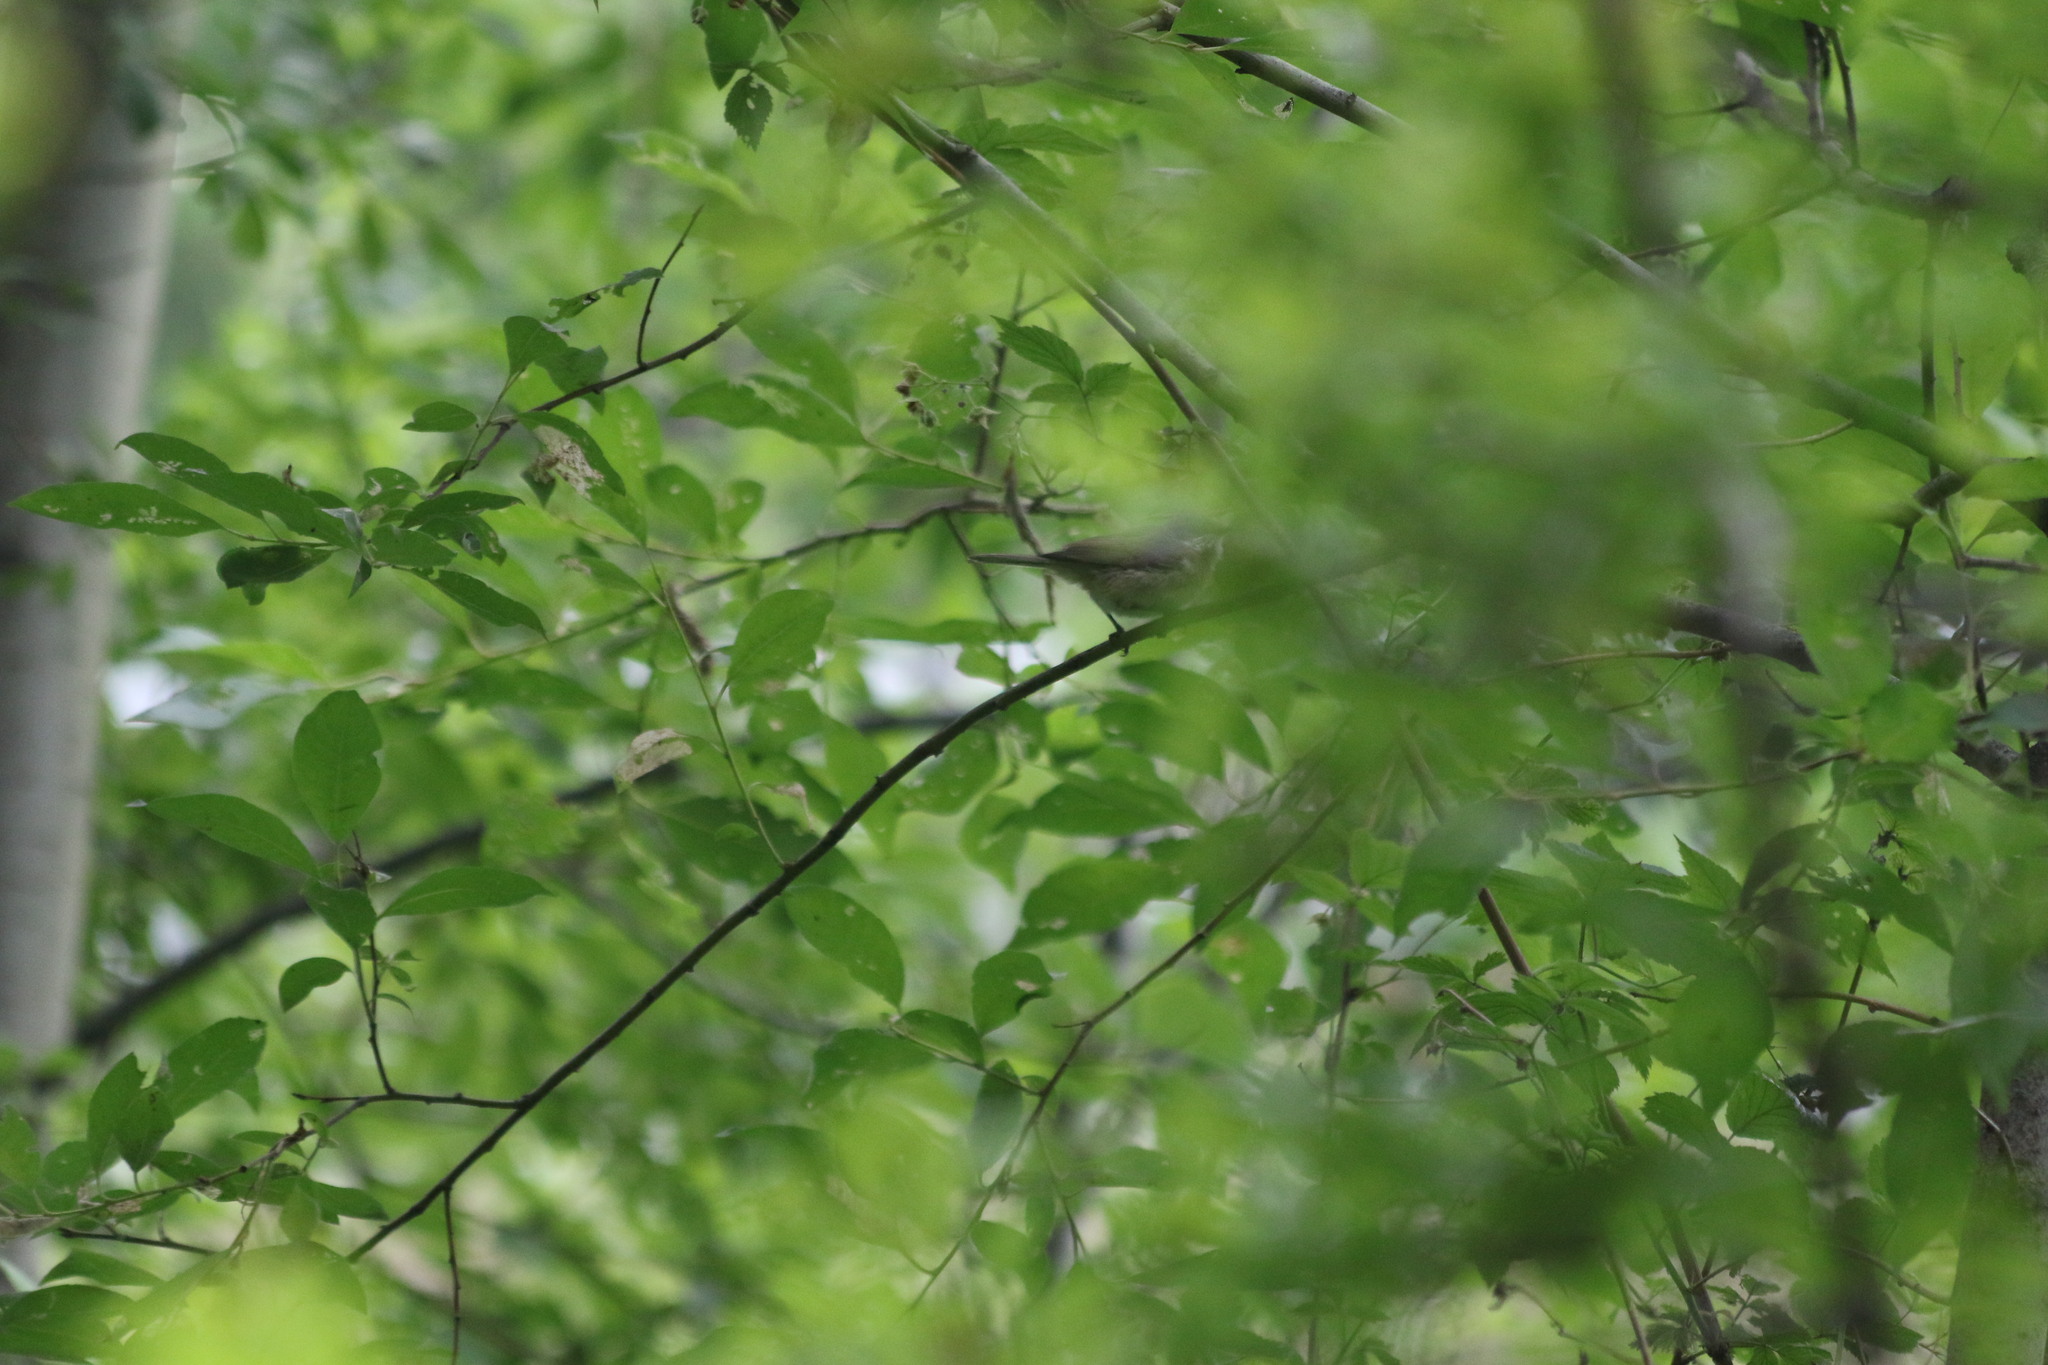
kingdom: Animalia
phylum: Chordata
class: Aves
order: Passeriformes
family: Sylviidae
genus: Sylvia
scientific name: Sylvia curruca
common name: Lesser whitethroat
